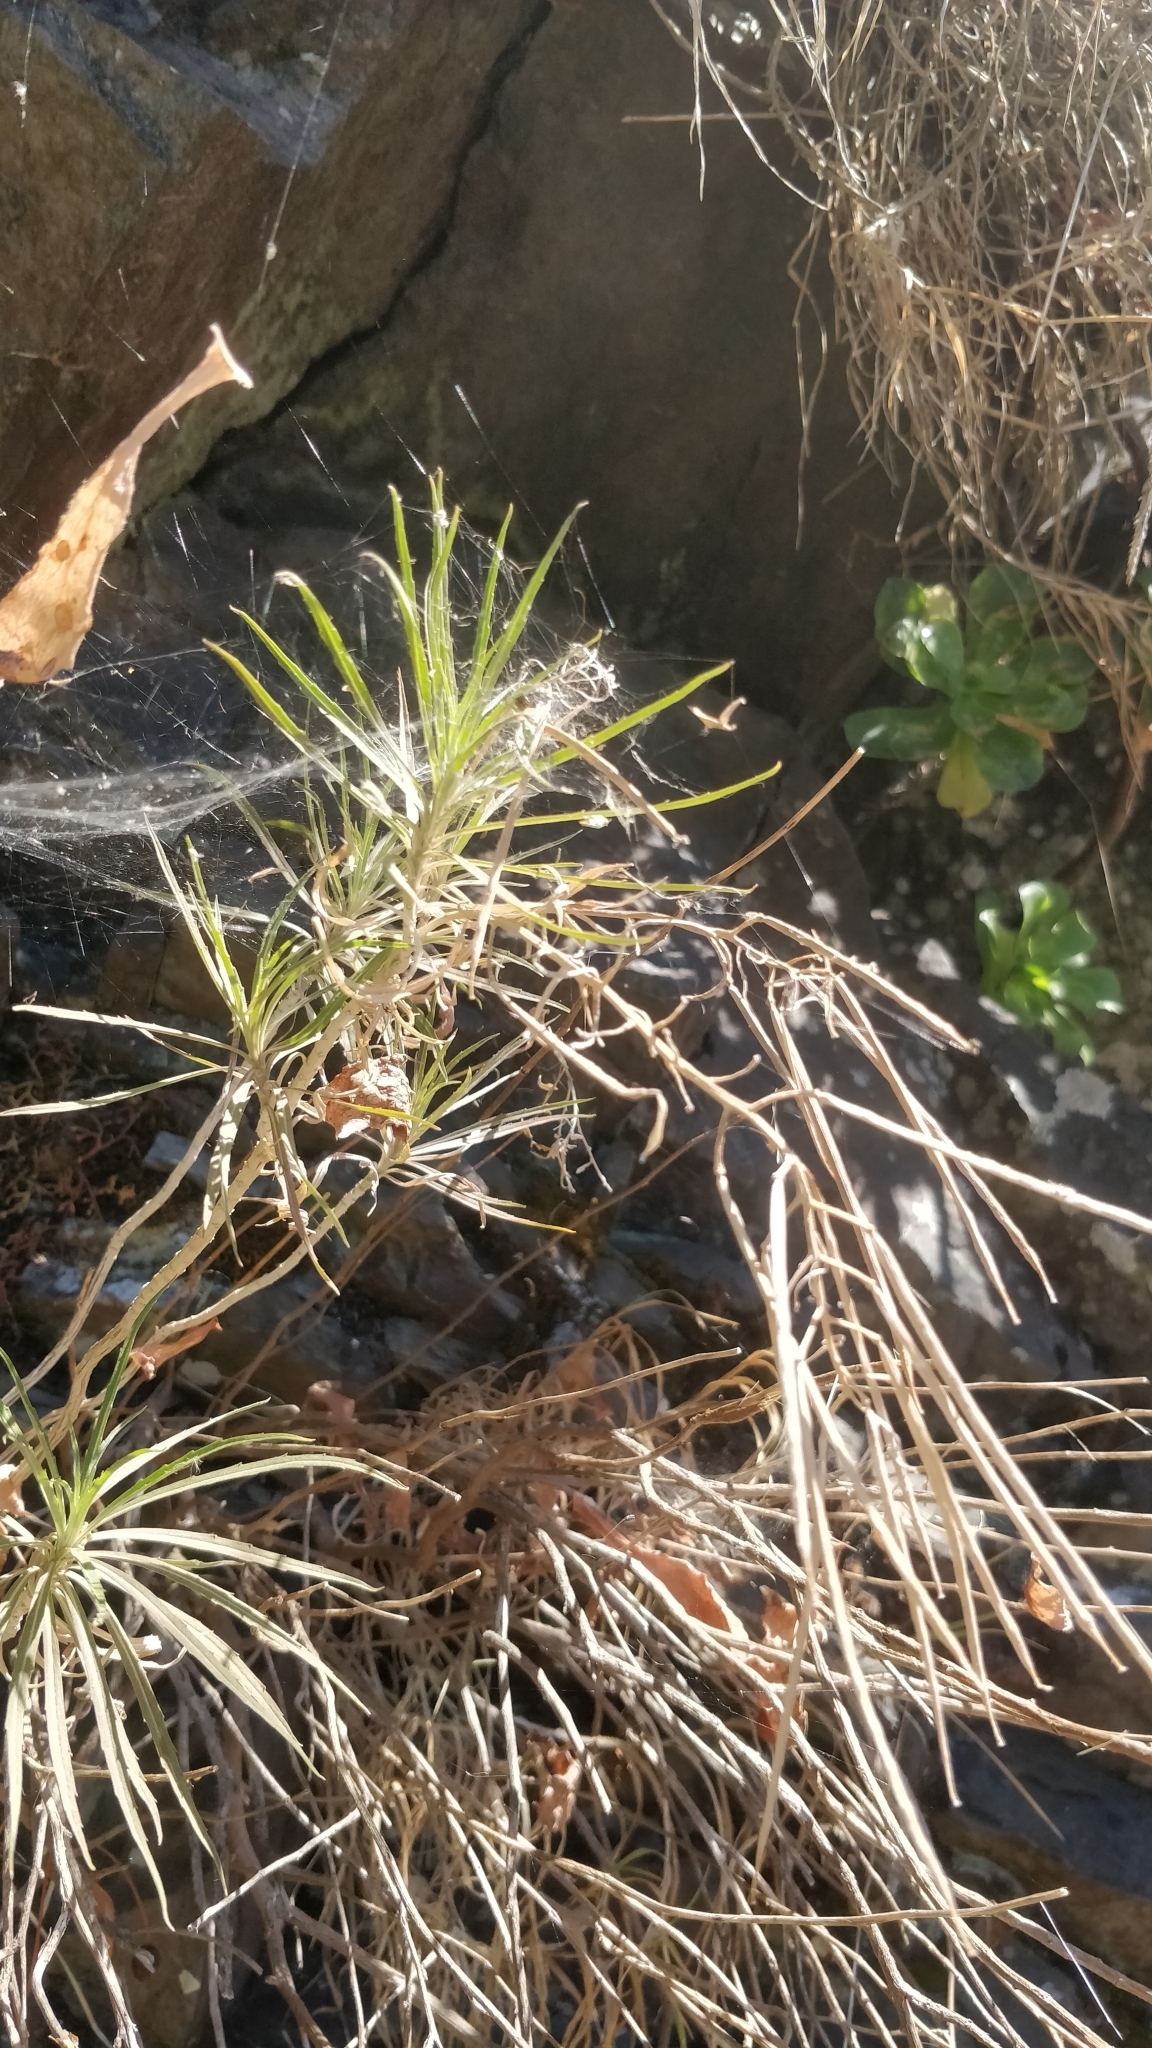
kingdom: Plantae
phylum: Tracheophyta
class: Magnoliopsida
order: Brassicales
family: Brassicaceae
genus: Erysimum
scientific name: Erysimum bicolor
